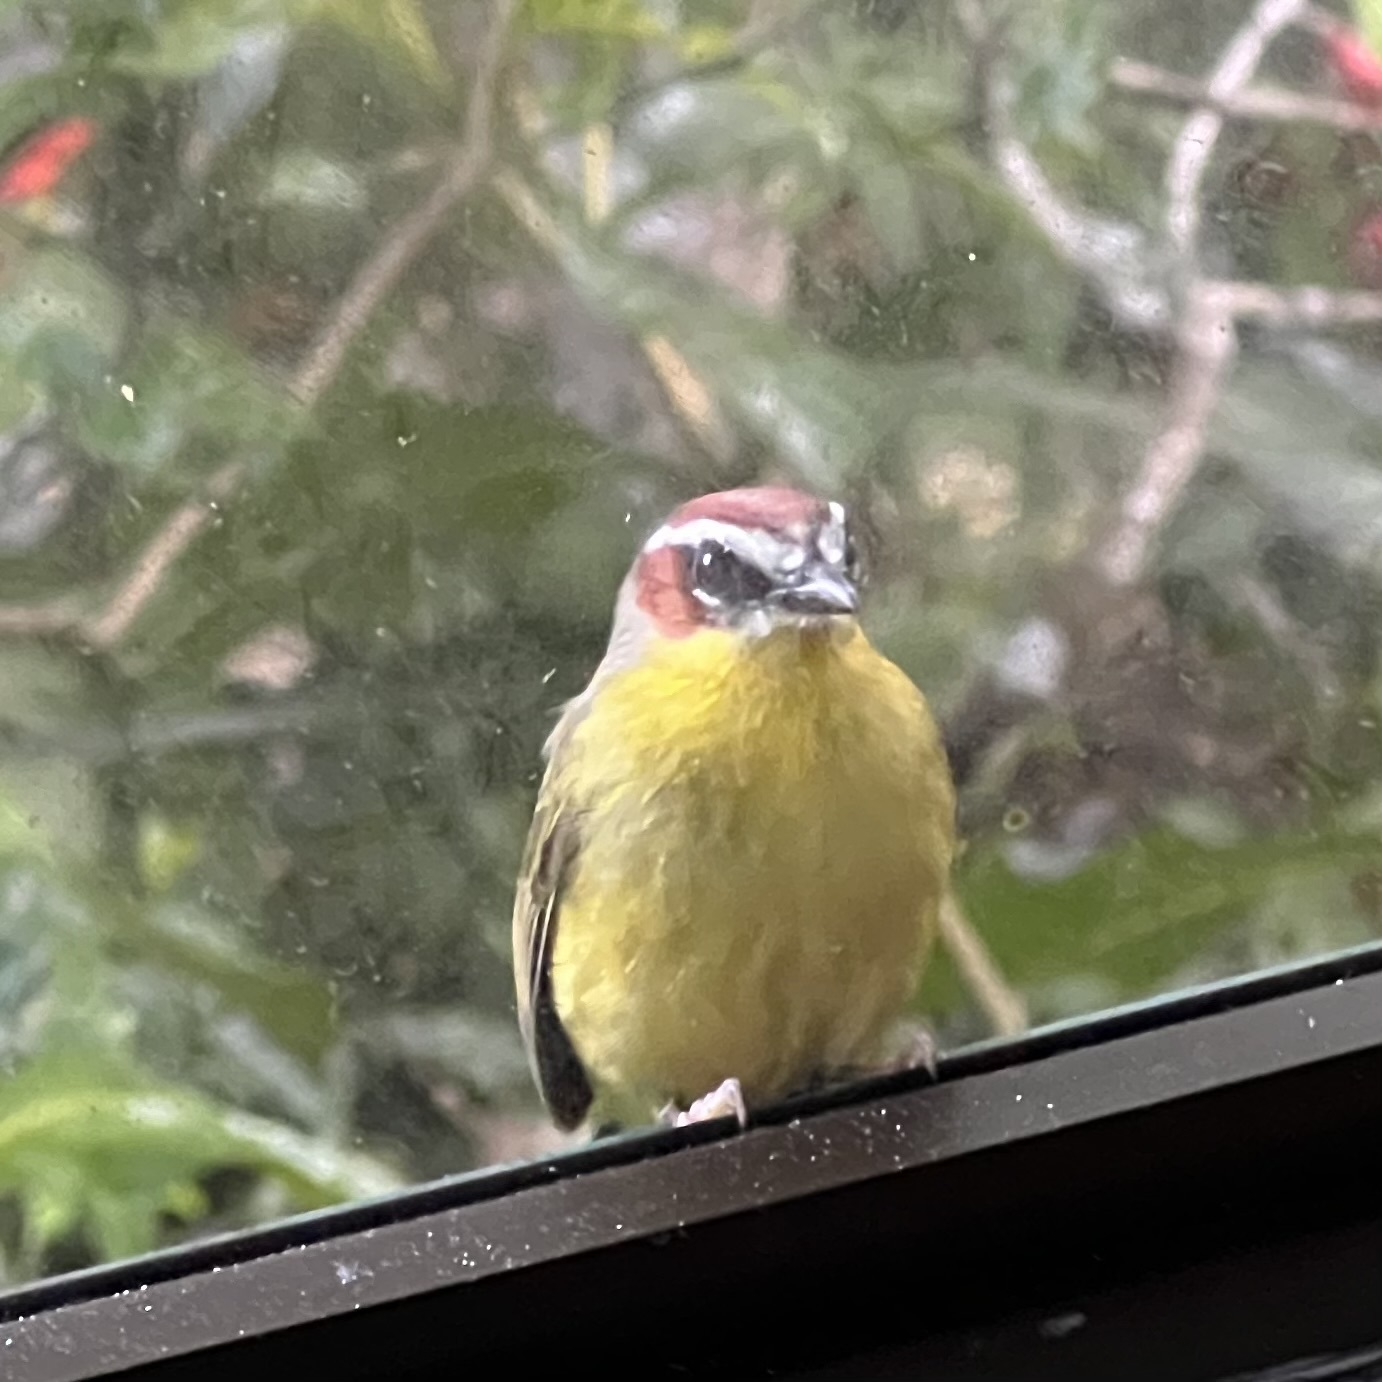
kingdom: Animalia
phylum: Chordata
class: Aves
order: Passeriformes
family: Parulidae
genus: Basileuterus
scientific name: Basileuterus rufifrons
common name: Rufous-capped warbler
